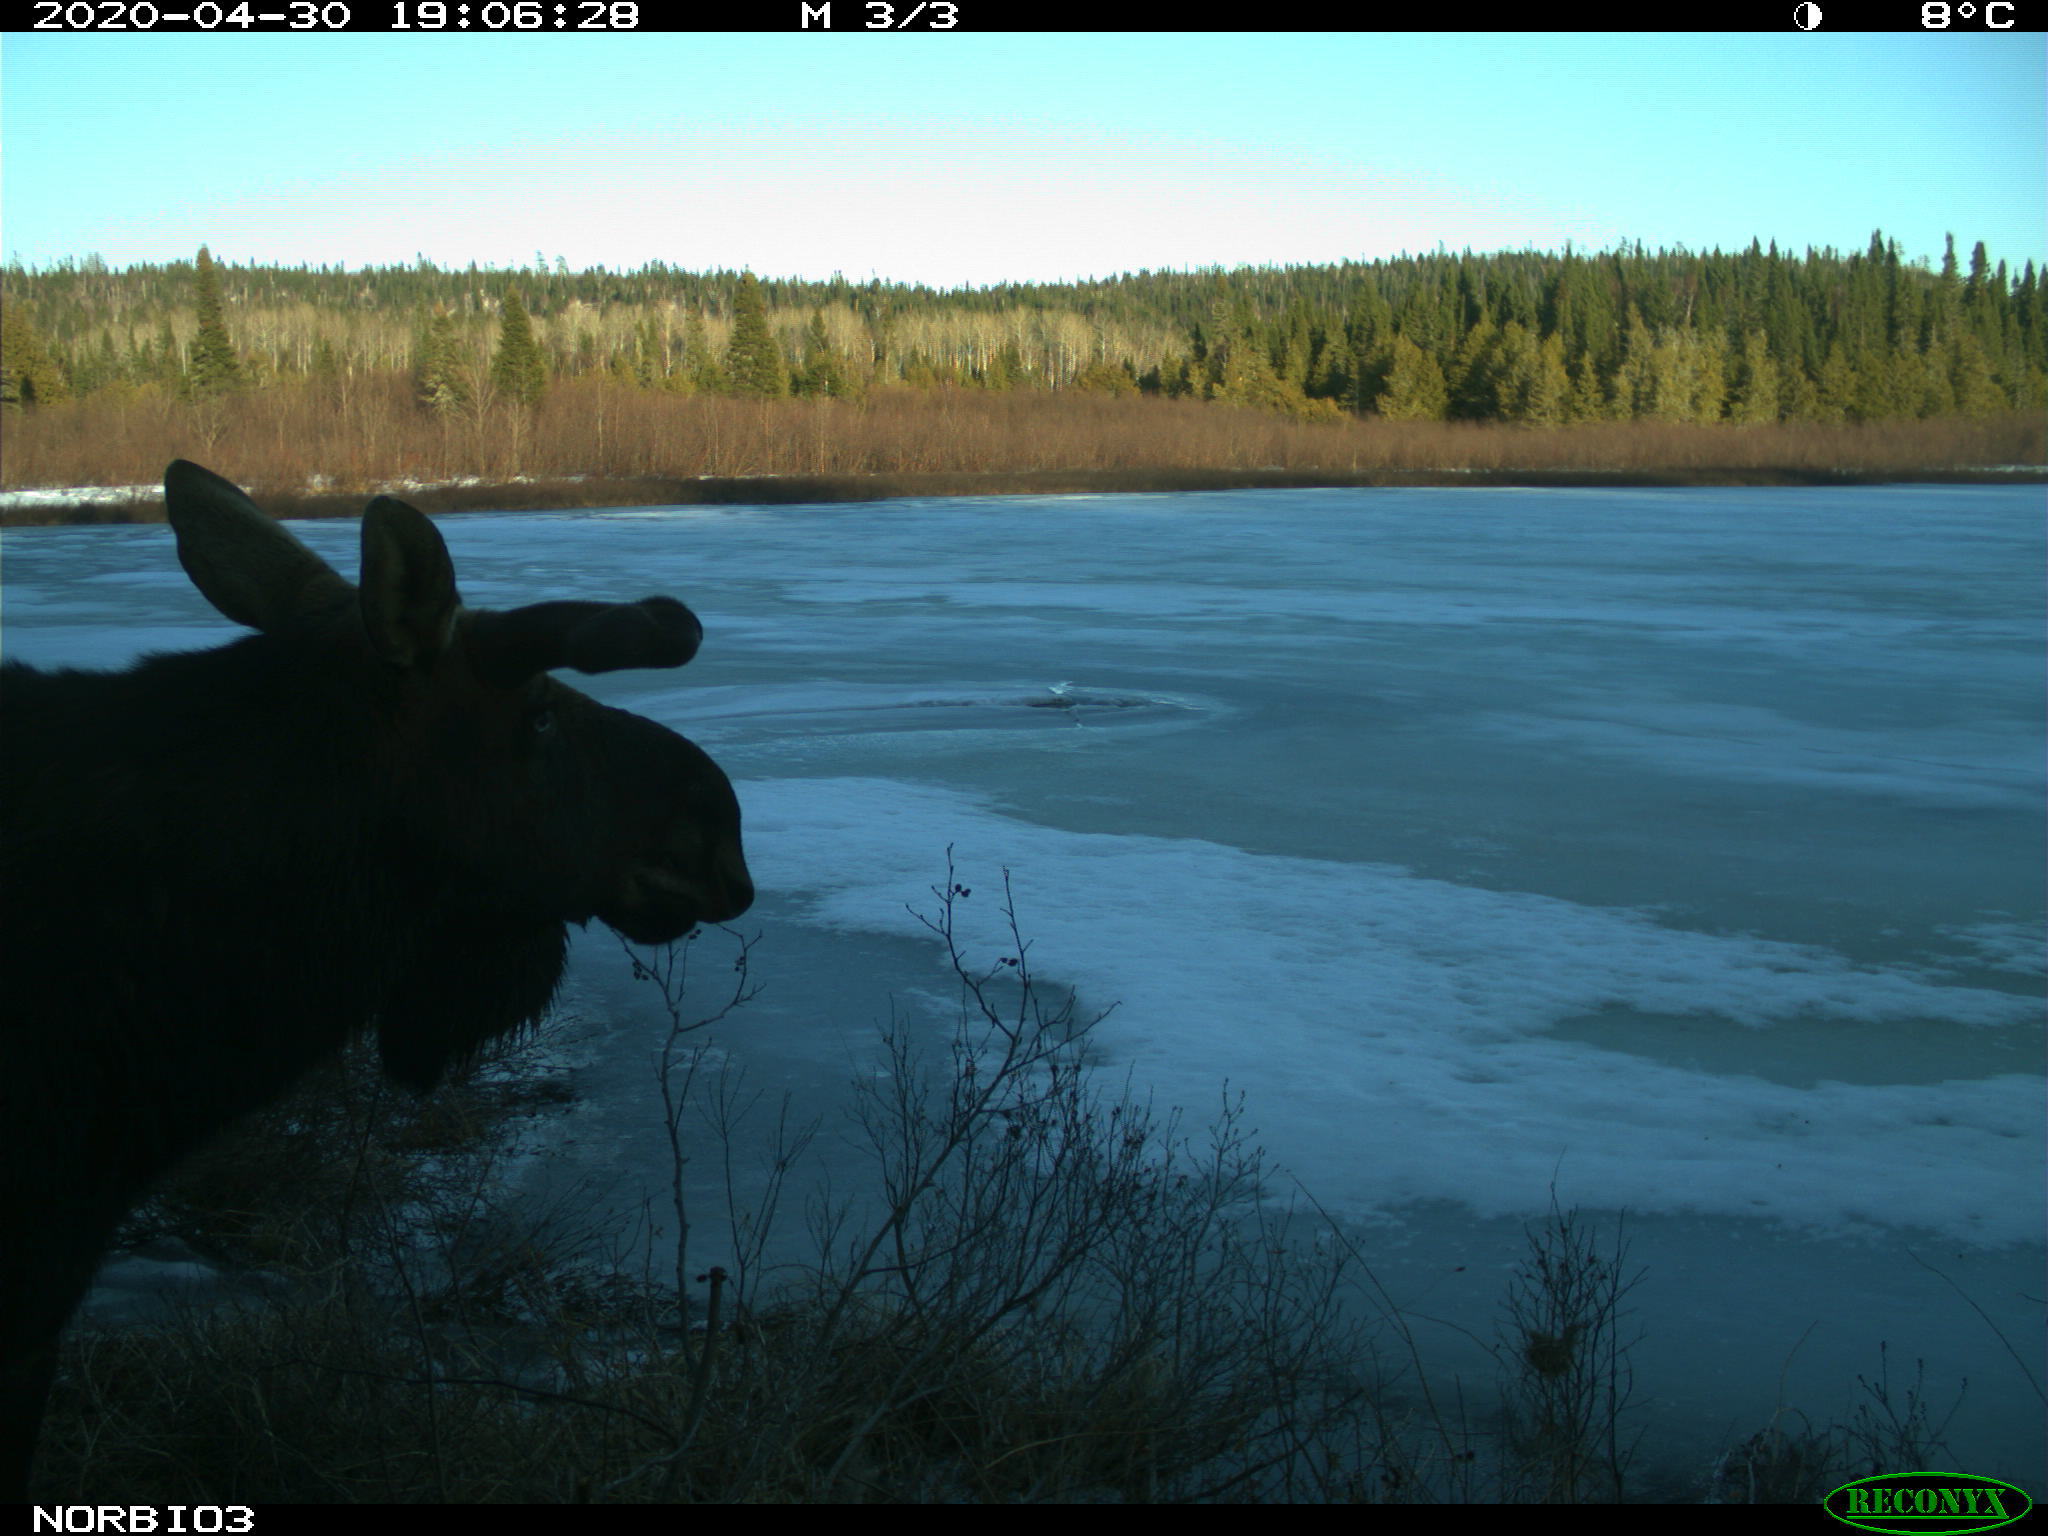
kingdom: Animalia
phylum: Chordata
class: Mammalia
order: Artiodactyla
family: Cervidae
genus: Alces
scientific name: Alces alces
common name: Moose
